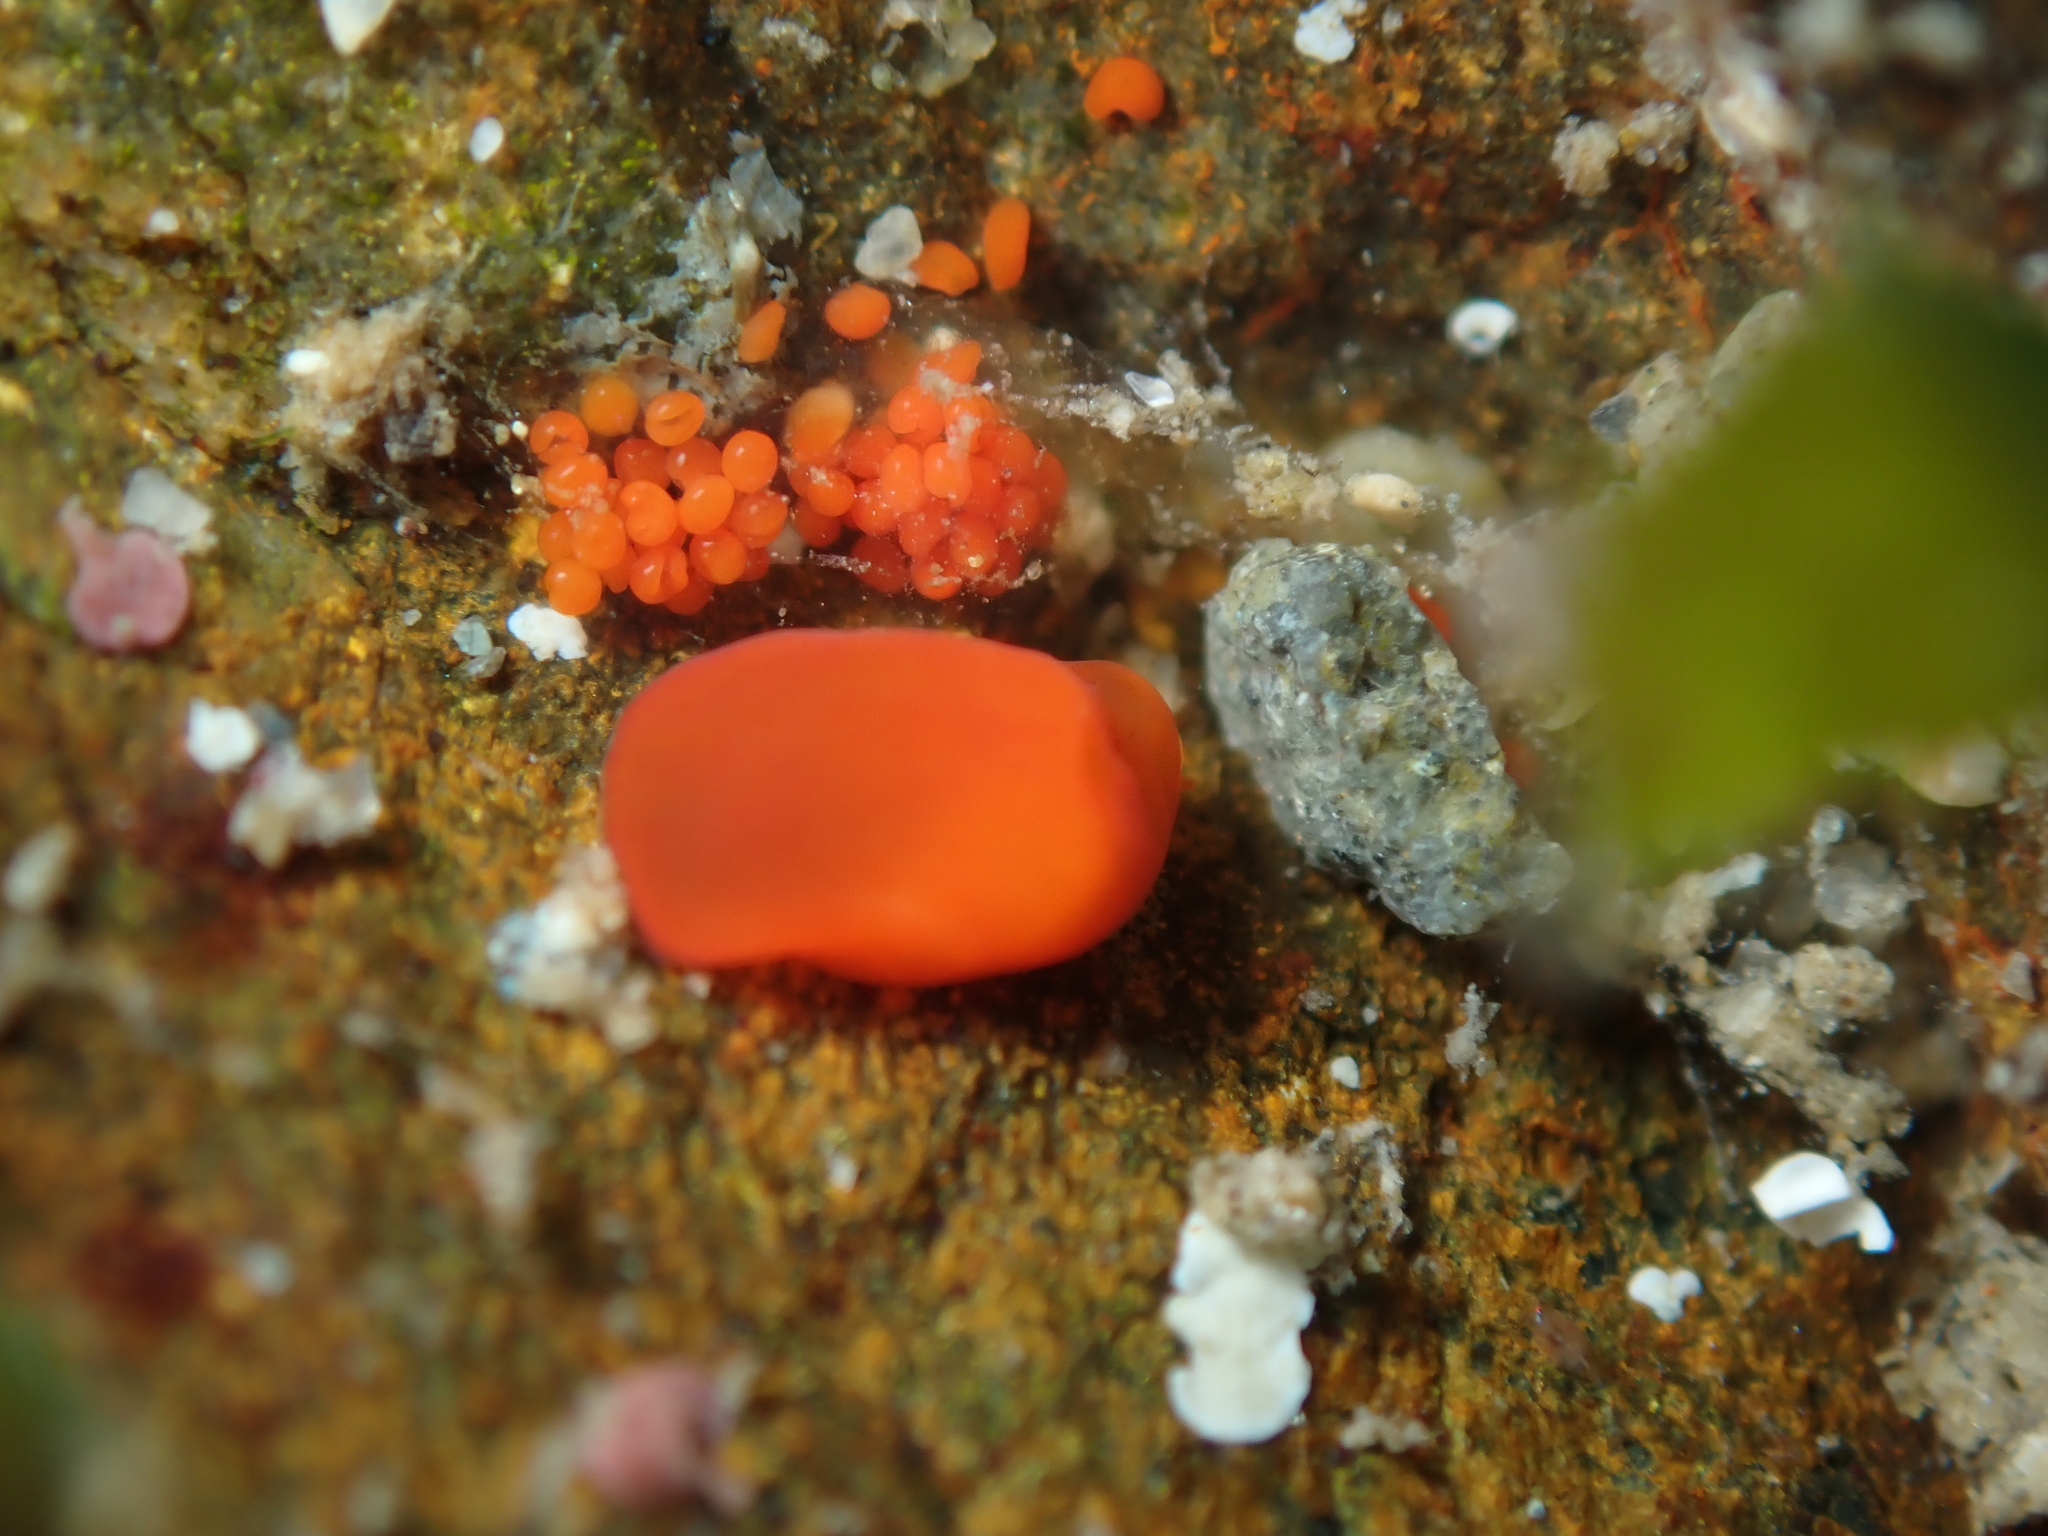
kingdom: Animalia
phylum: Xenacoelomorpha
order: Acoela
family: Convolutidae
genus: Polychoerus
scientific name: Polychoerus gordoni
